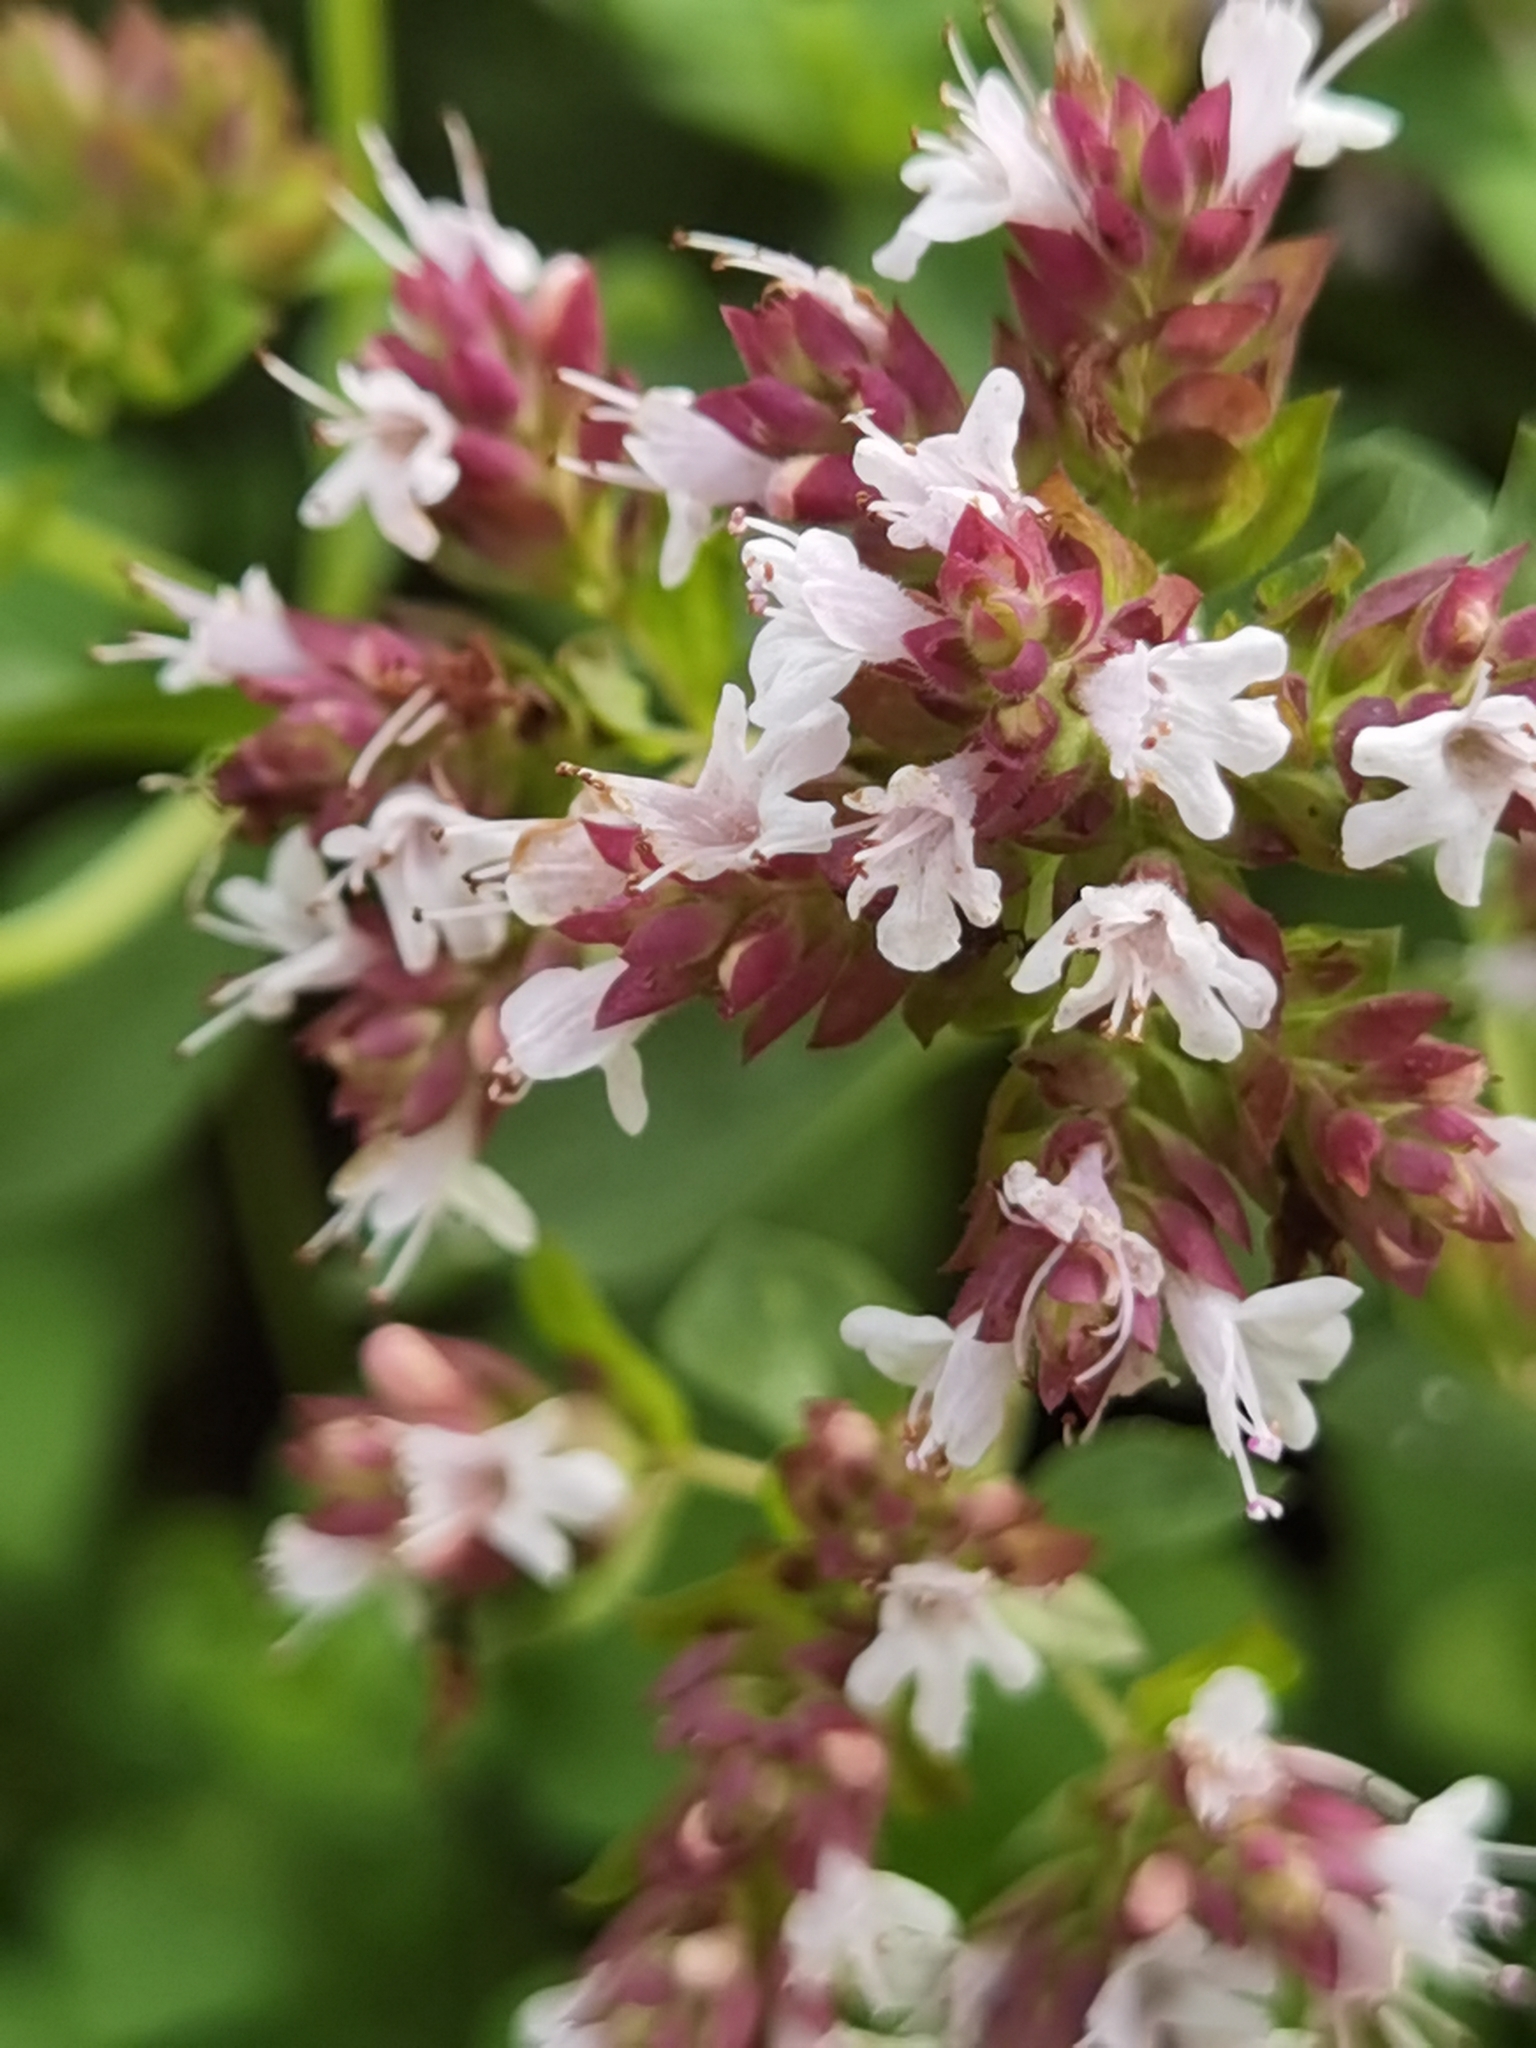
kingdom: Plantae
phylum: Tracheophyta
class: Magnoliopsida
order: Lamiales
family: Lamiaceae
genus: Origanum
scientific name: Origanum vulgare
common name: Wild marjoram
